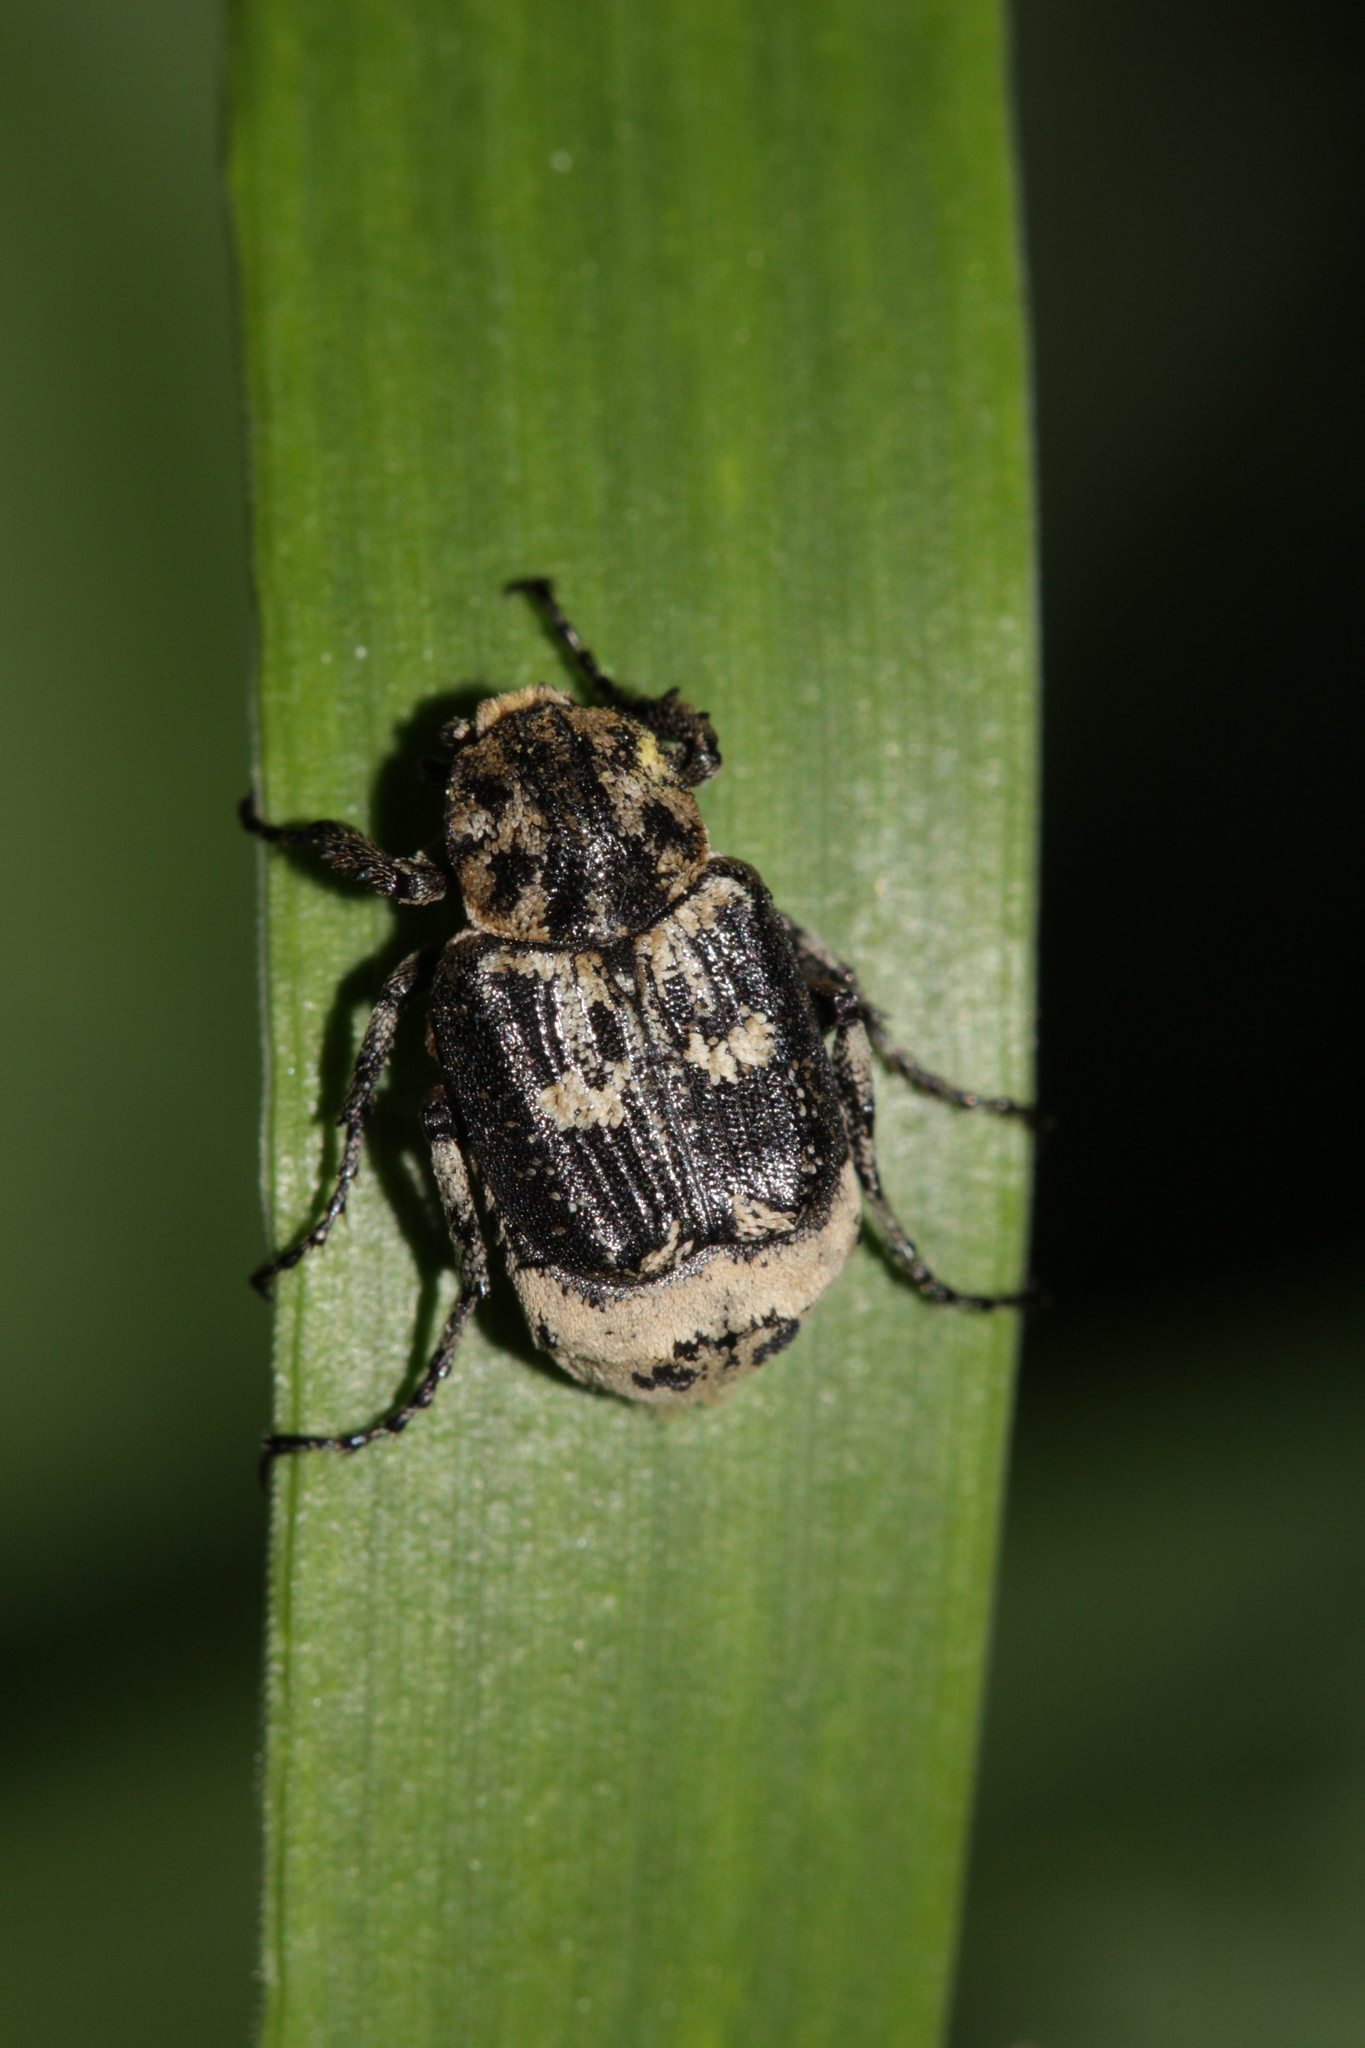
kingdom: Animalia
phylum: Arthropoda
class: Insecta
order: Coleoptera
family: Scarabaeidae
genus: Valgus
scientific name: Valgus hemipterus
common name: Bug flower chafer
